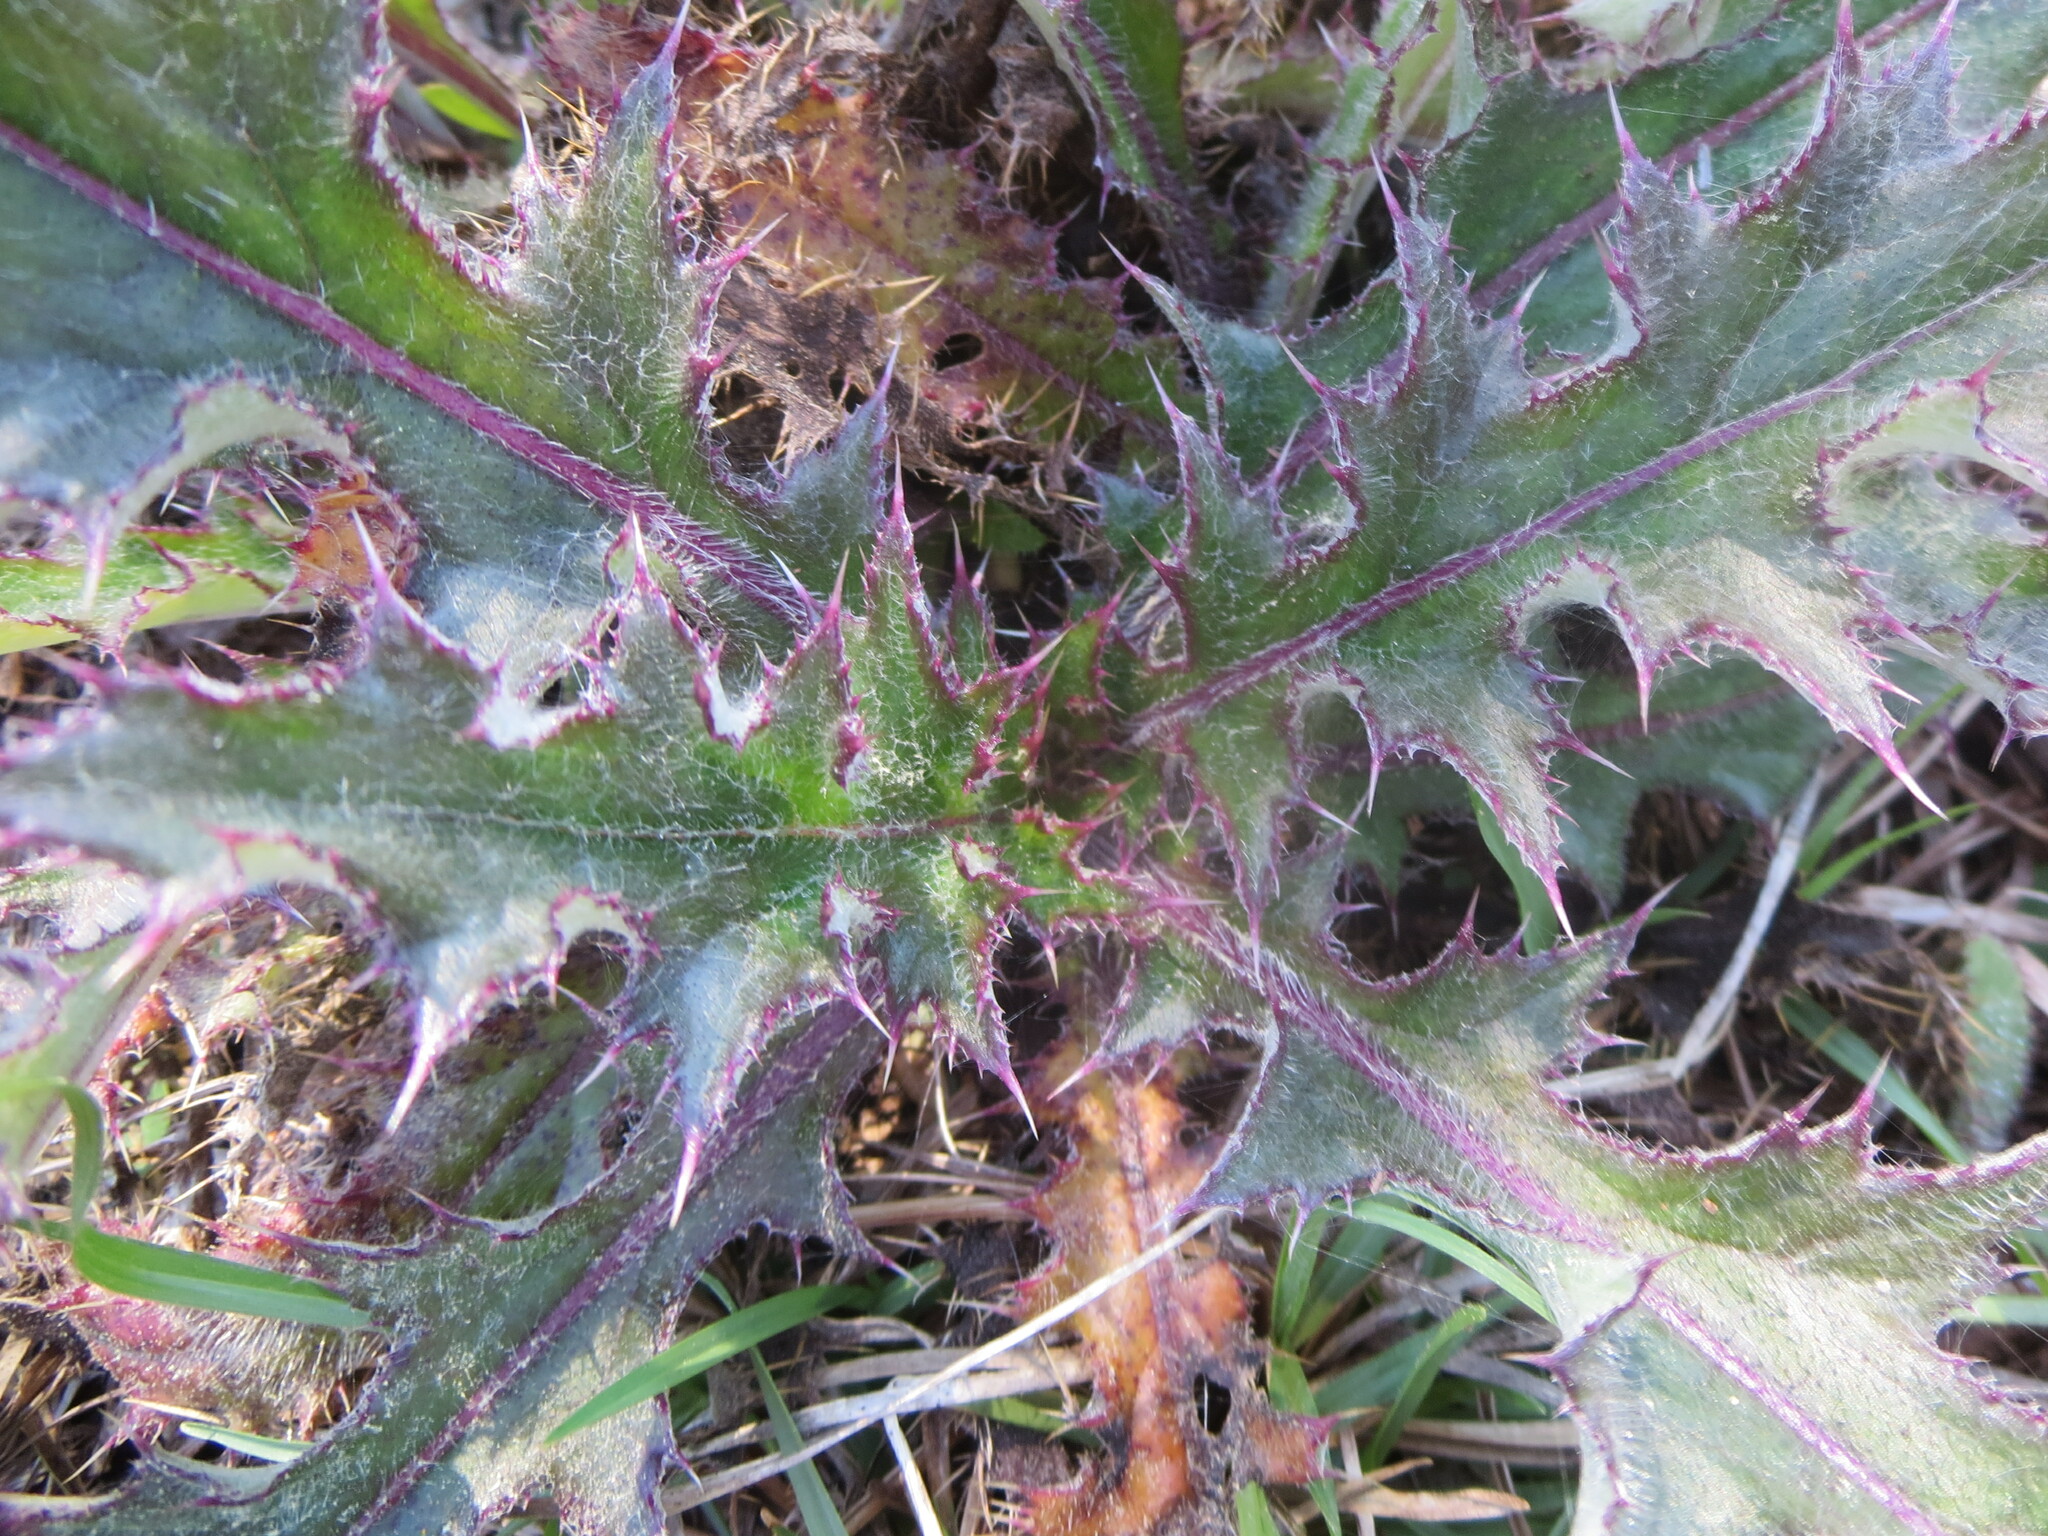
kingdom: Plantae
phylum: Tracheophyta
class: Magnoliopsida
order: Asterales
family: Asteraceae
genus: Cirsium
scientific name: Cirsium horridulum
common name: Bristly thistle
